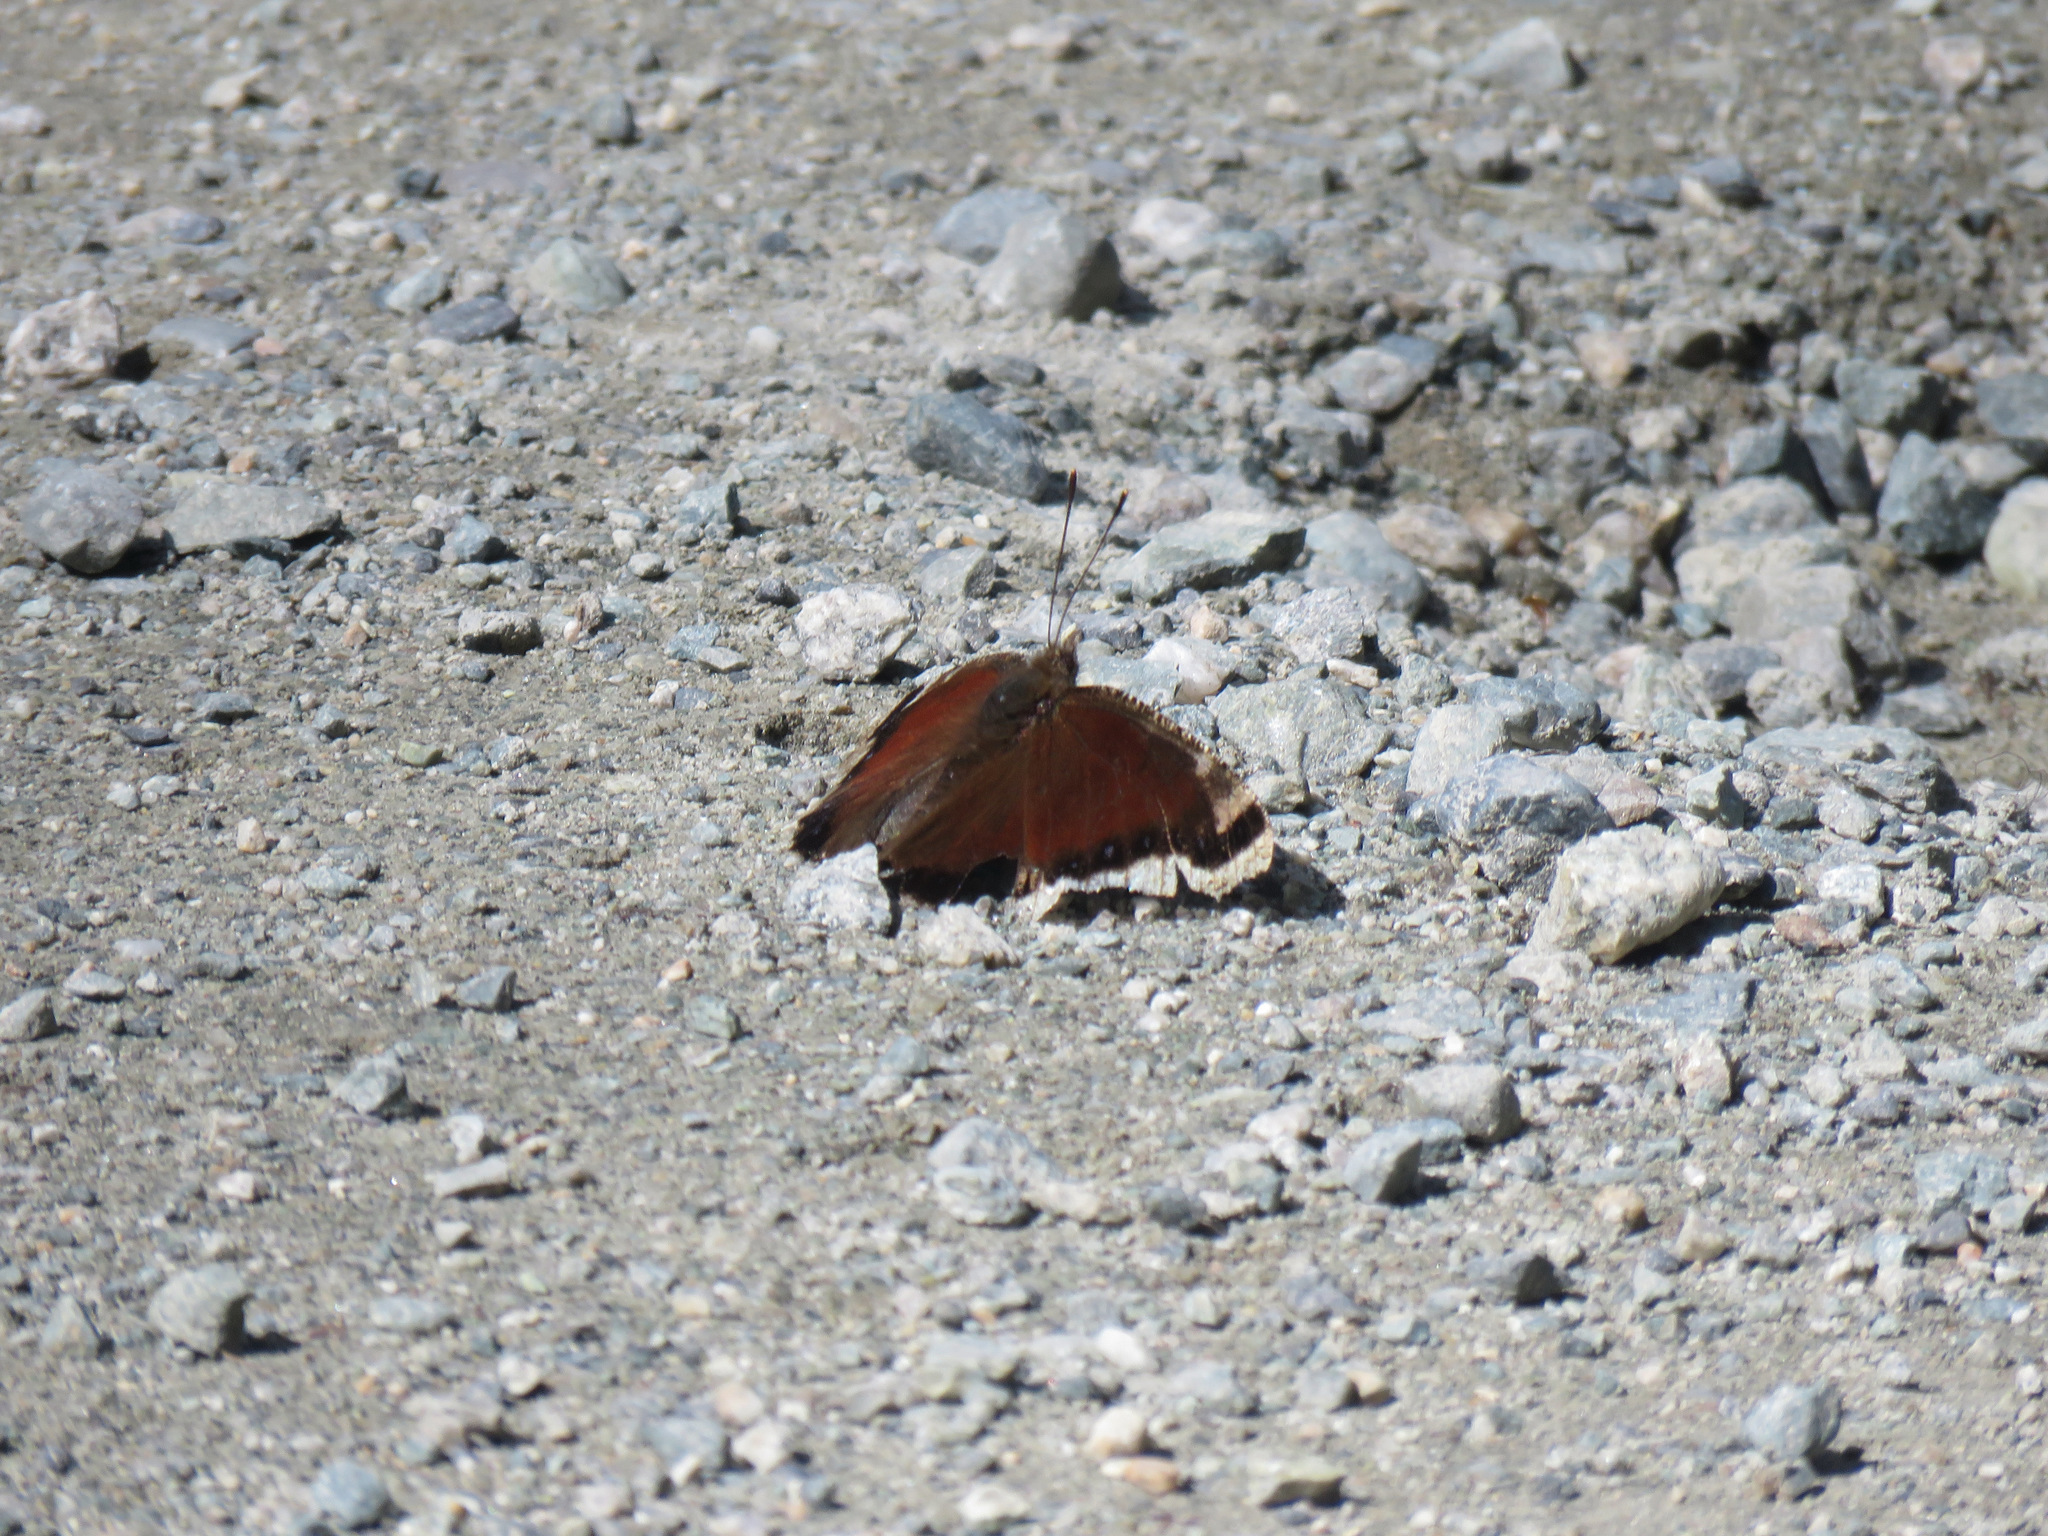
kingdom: Animalia
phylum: Arthropoda
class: Insecta
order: Lepidoptera
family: Nymphalidae
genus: Nymphalis
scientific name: Nymphalis antiopa
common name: Camberwell beauty
